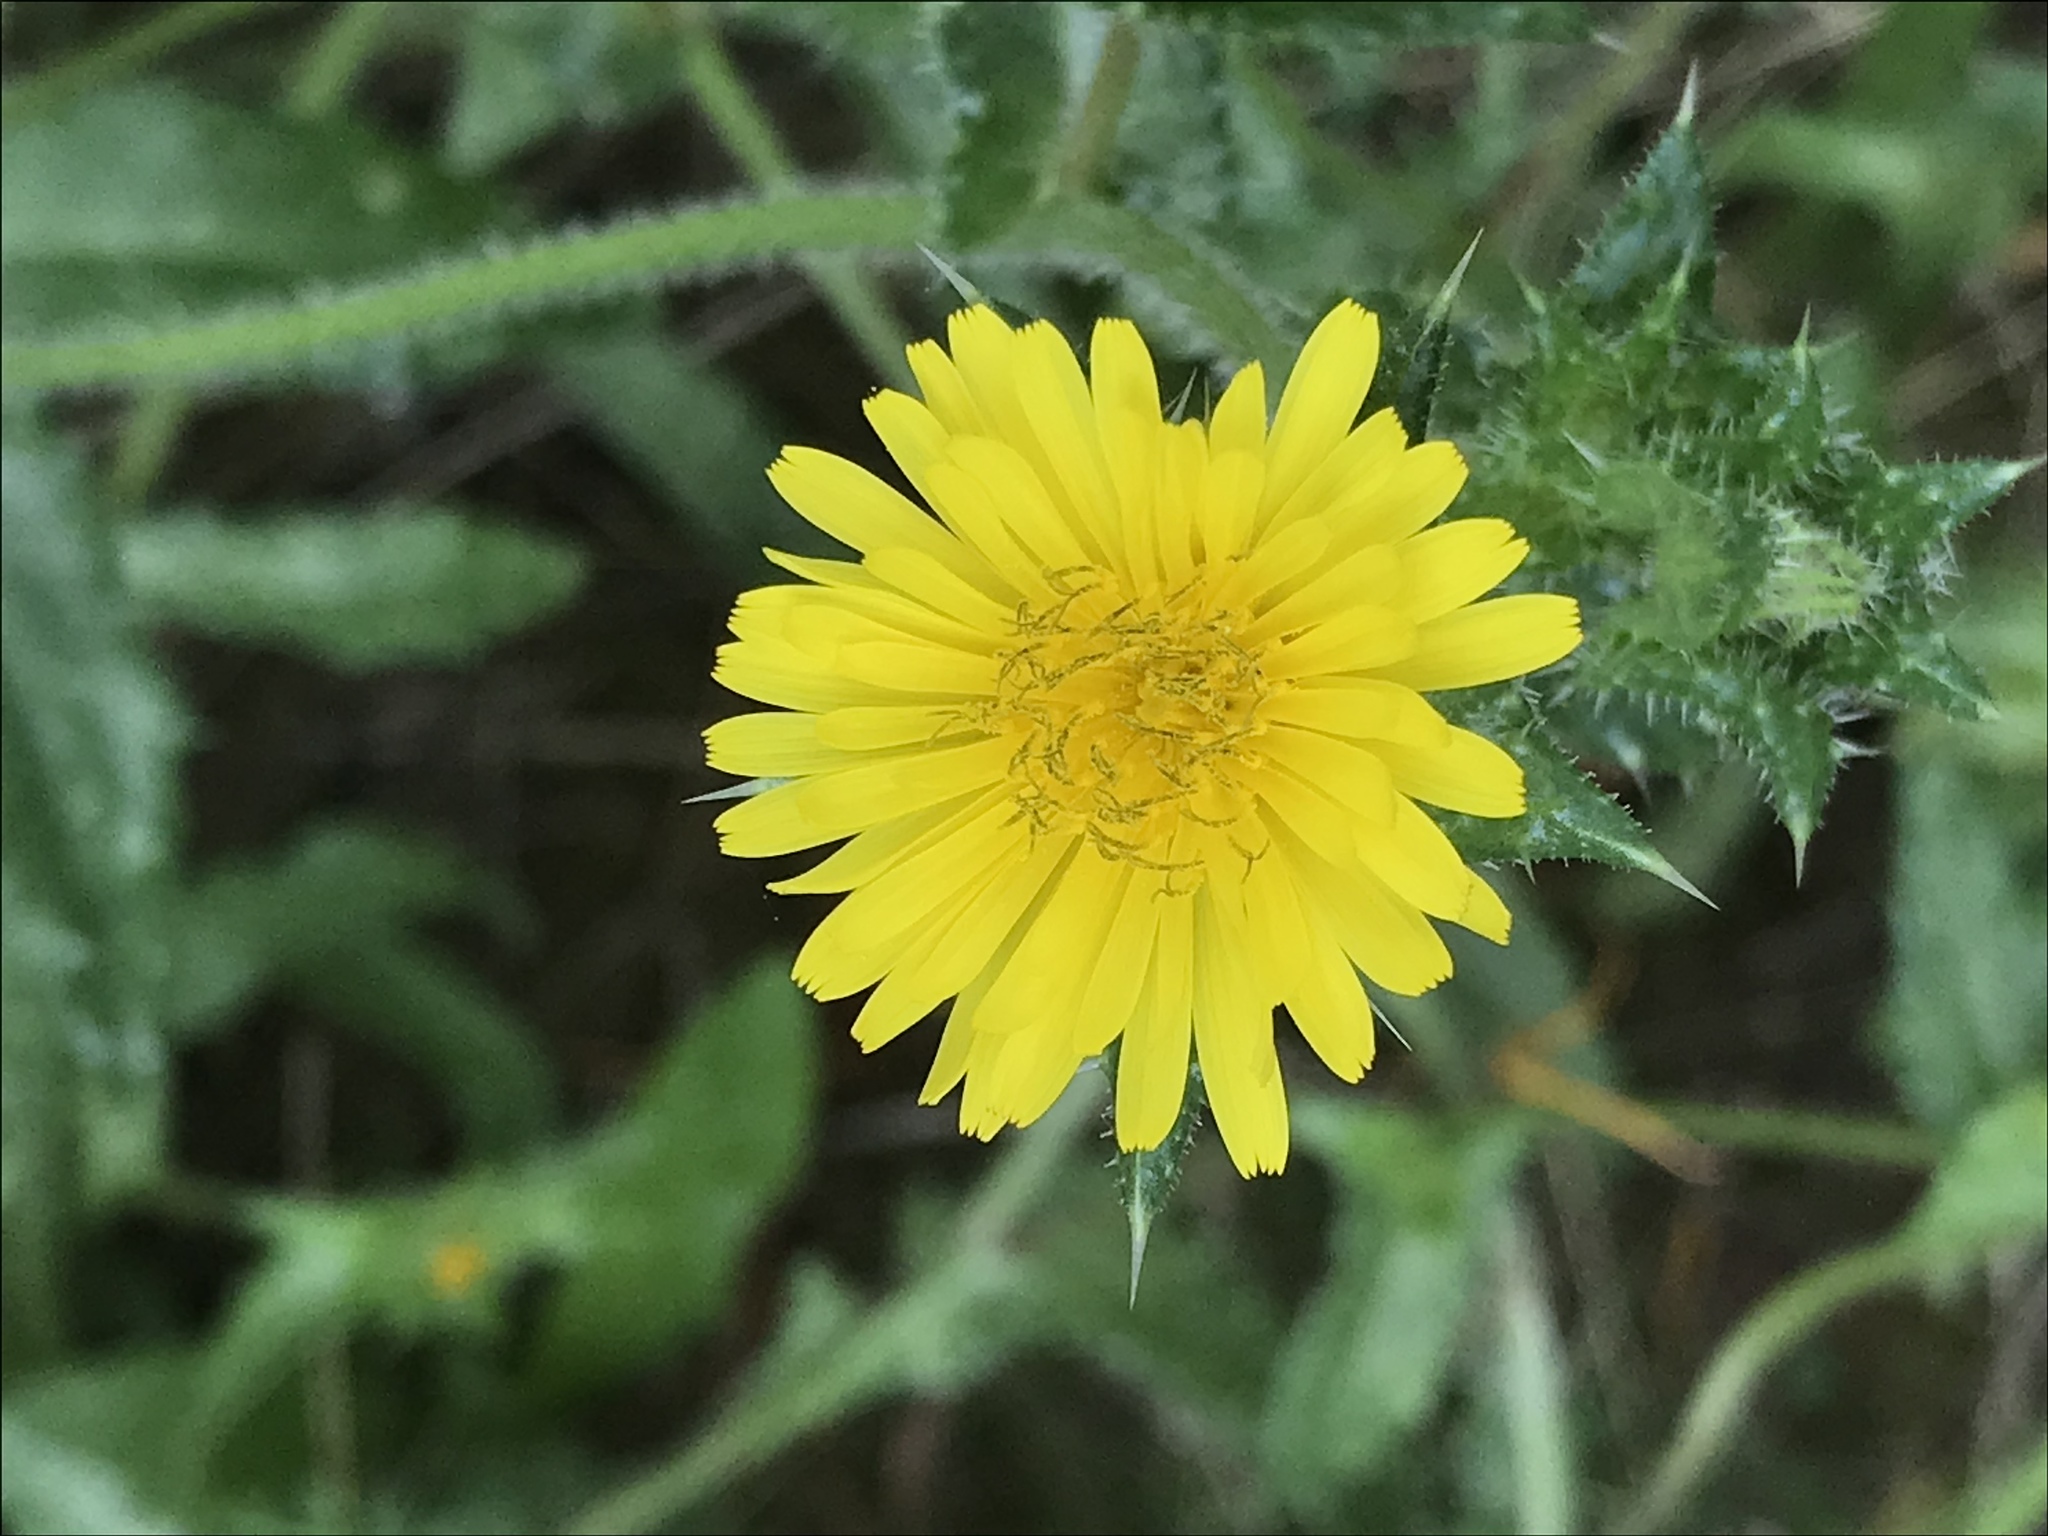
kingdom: Plantae
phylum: Tracheophyta
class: Magnoliopsida
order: Asterales
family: Asteraceae
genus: Helminthotheca
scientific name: Helminthotheca echioides
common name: Ox-tongue
